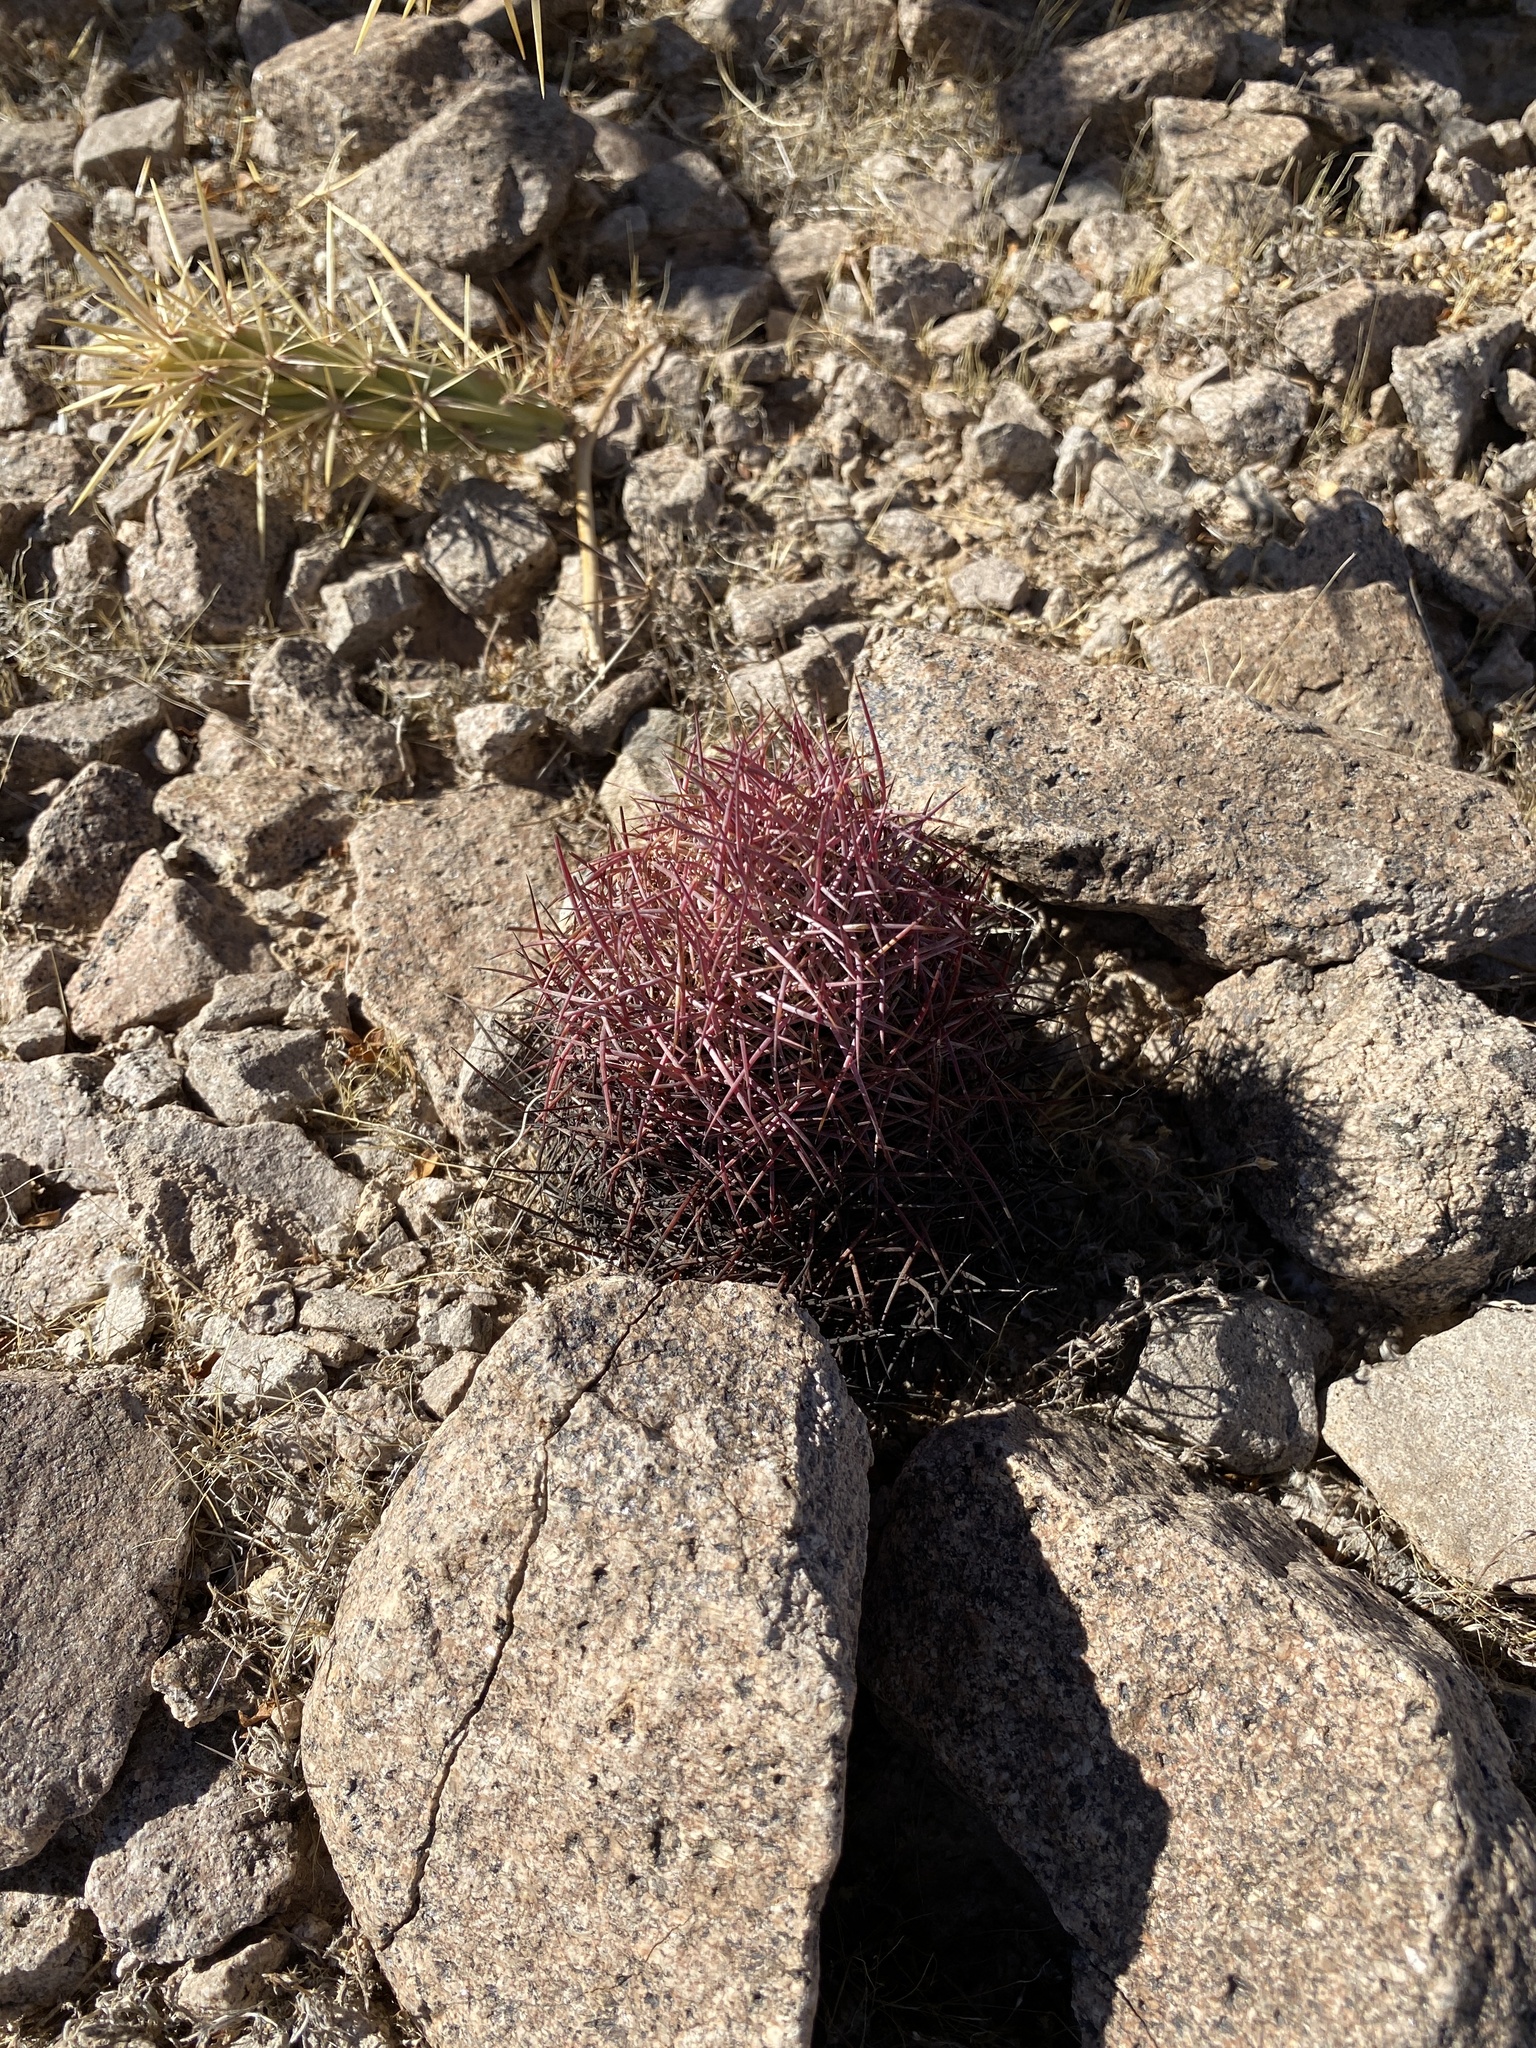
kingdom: Plantae
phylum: Tracheophyta
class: Magnoliopsida
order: Caryophyllales
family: Cactaceae
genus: Sclerocactus
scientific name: Sclerocactus johnsonii
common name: Eight-spine fishhook cactus
